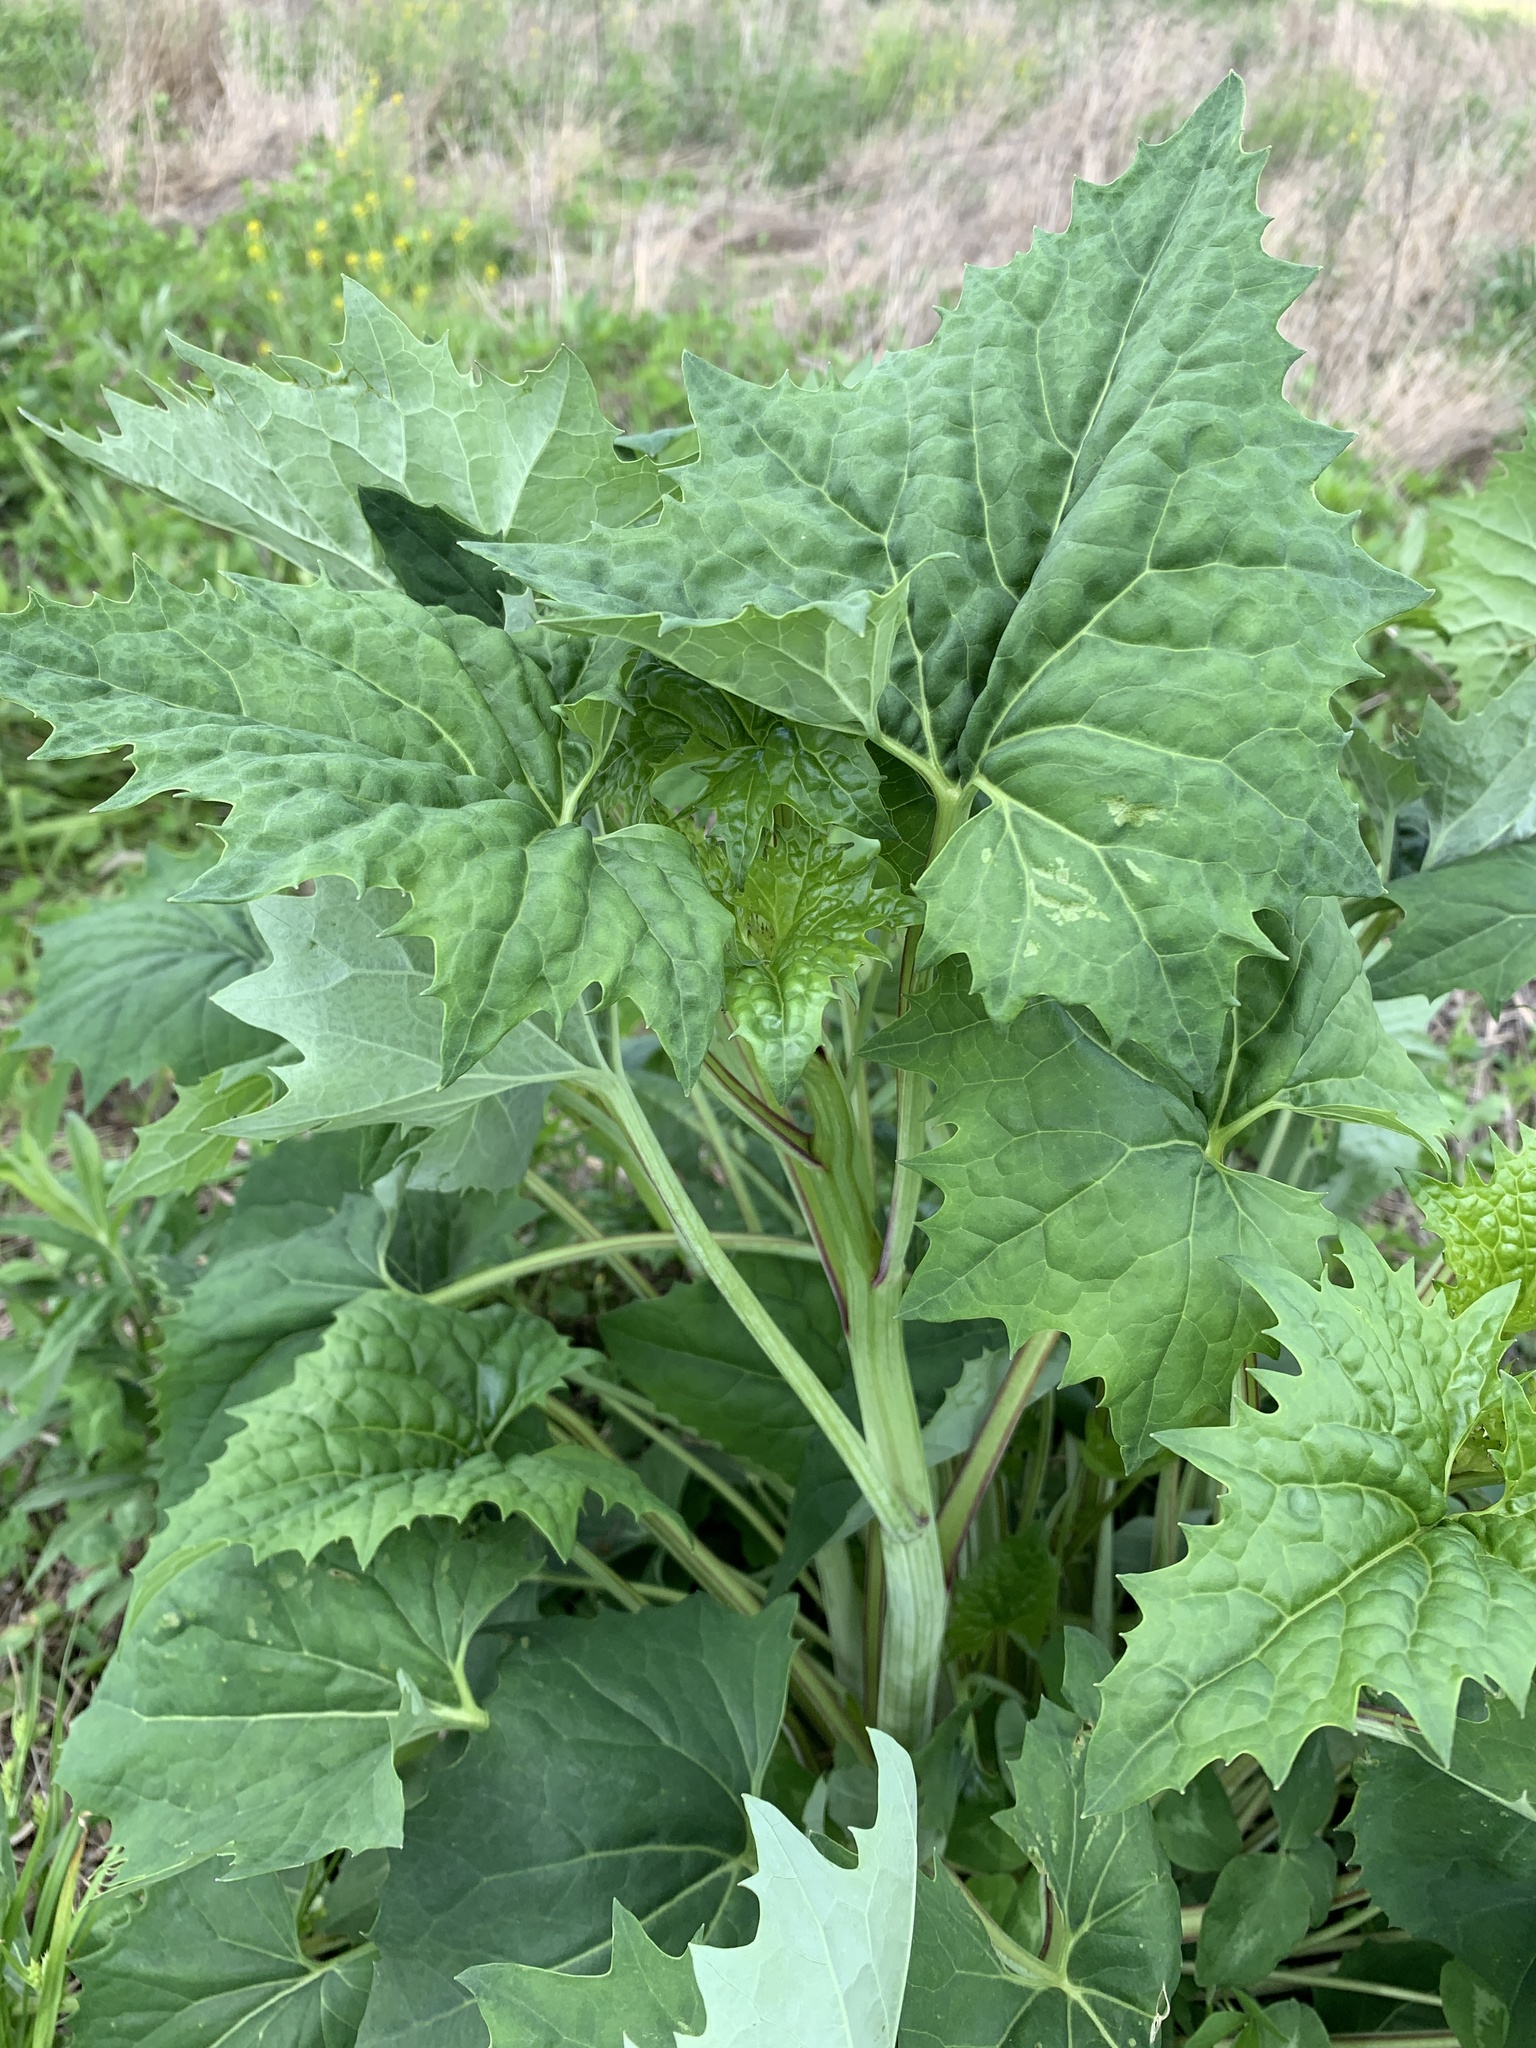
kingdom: Plantae
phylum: Tracheophyta
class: Magnoliopsida
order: Asterales
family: Asteraceae
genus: Arnoglossum
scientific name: Arnoglossum atriplicifolium
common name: Pale indian-plantain
